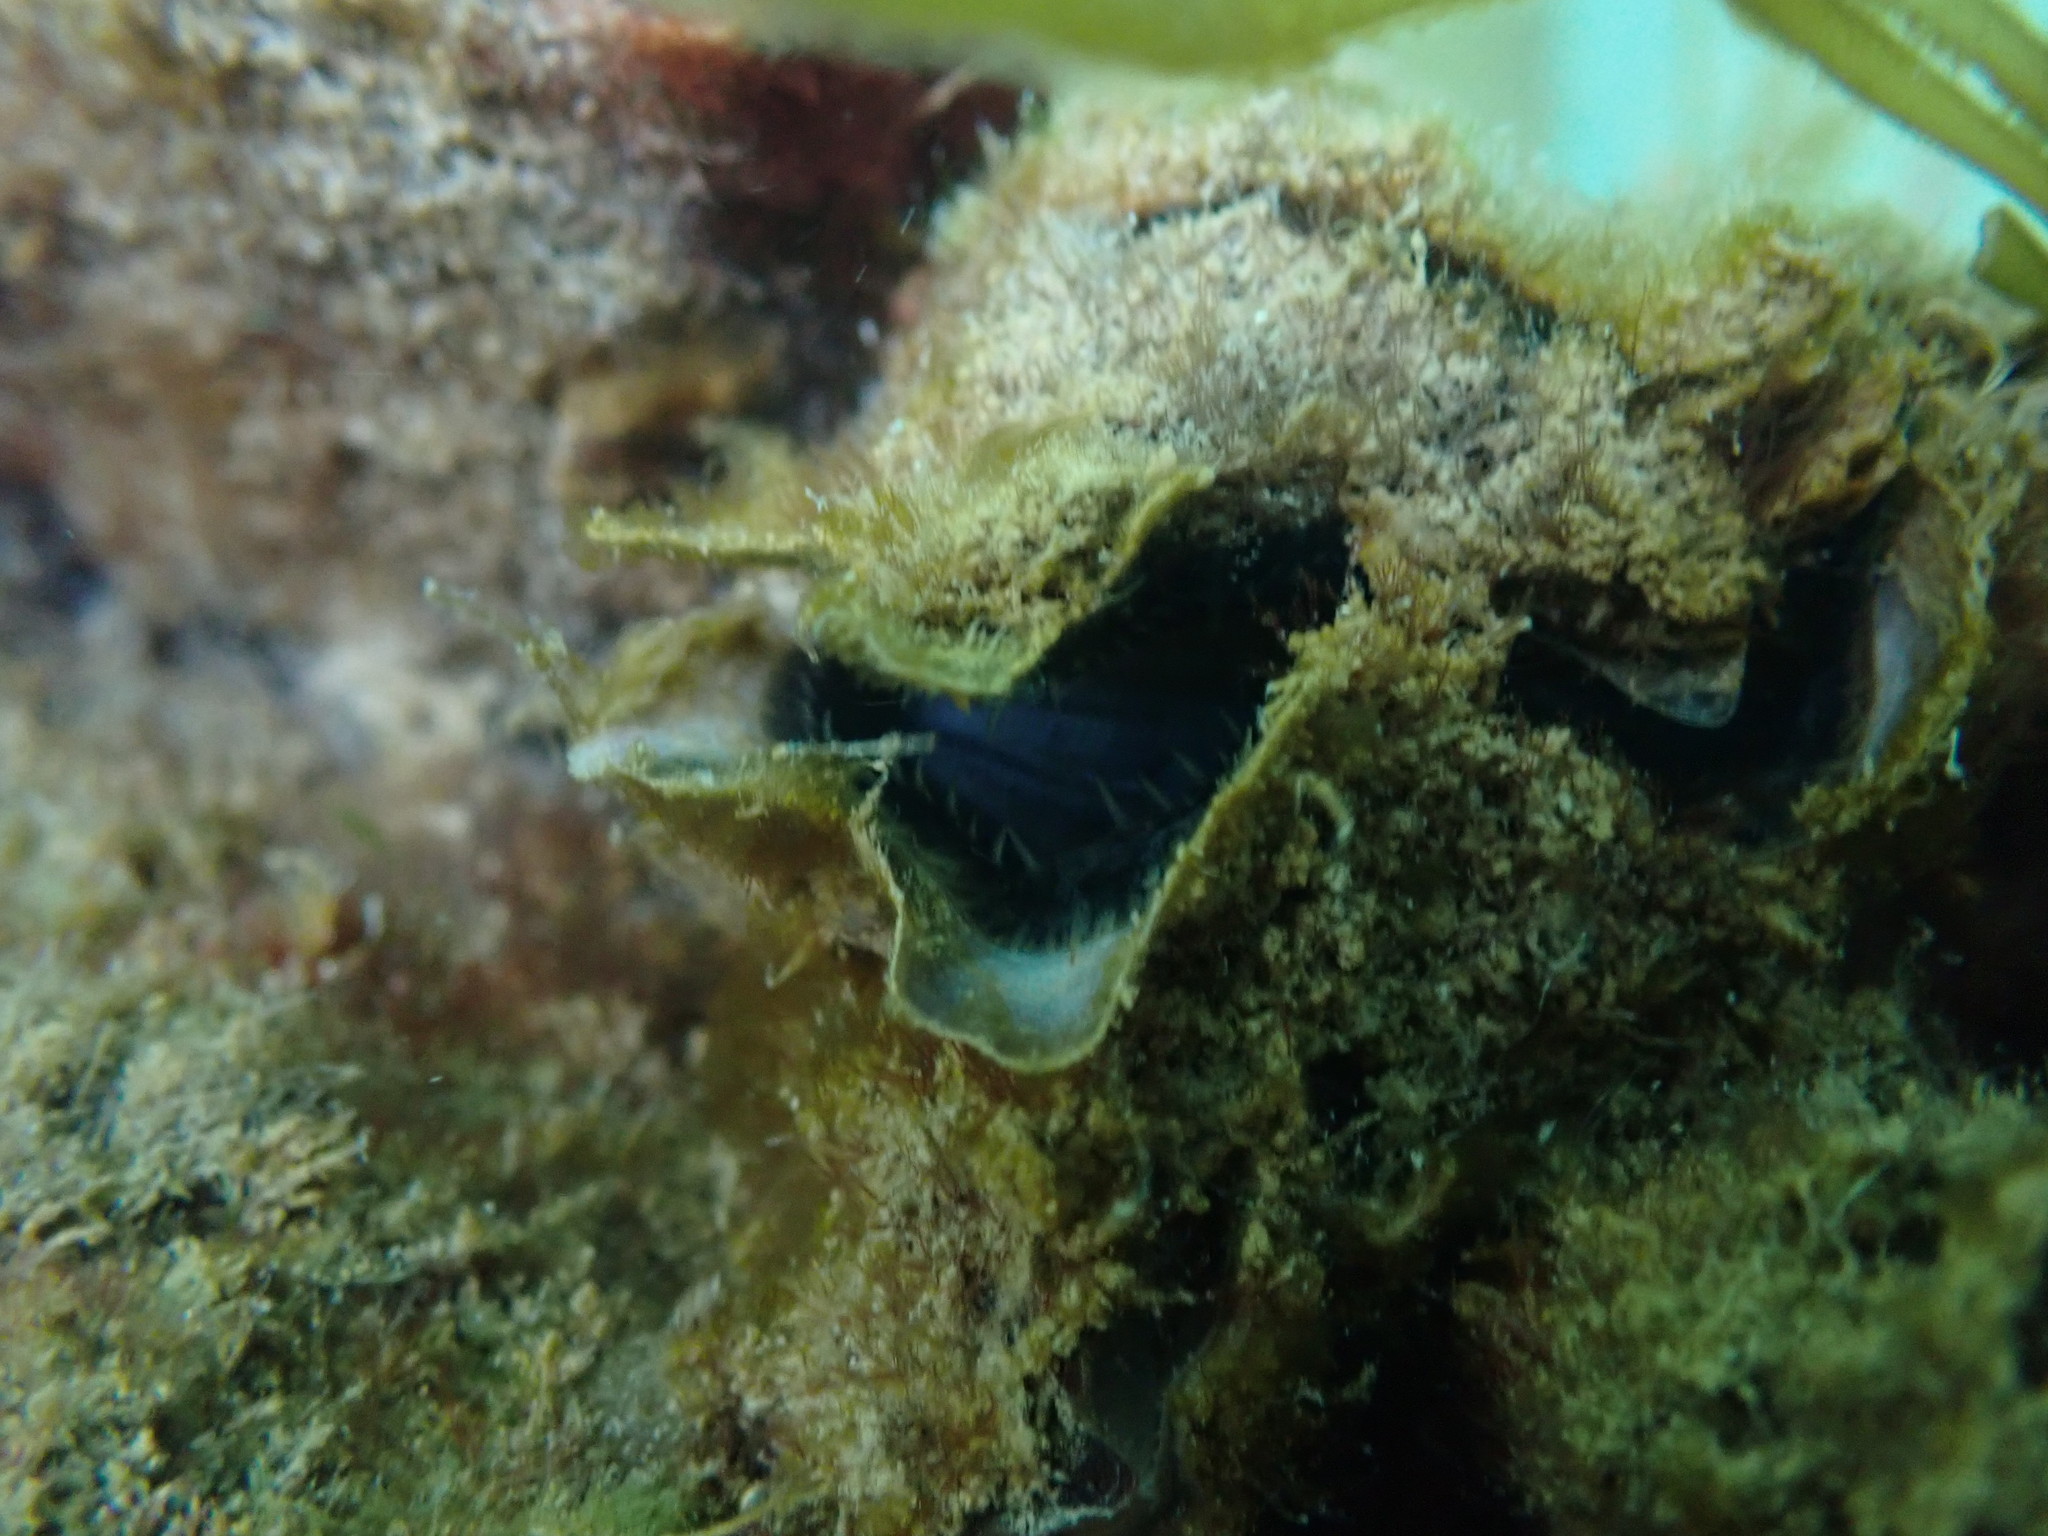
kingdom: Animalia
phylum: Mollusca
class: Bivalvia
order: Ostreida
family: Ostreidae
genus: Magallana
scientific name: Magallana gigas
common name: Pacific oyster
